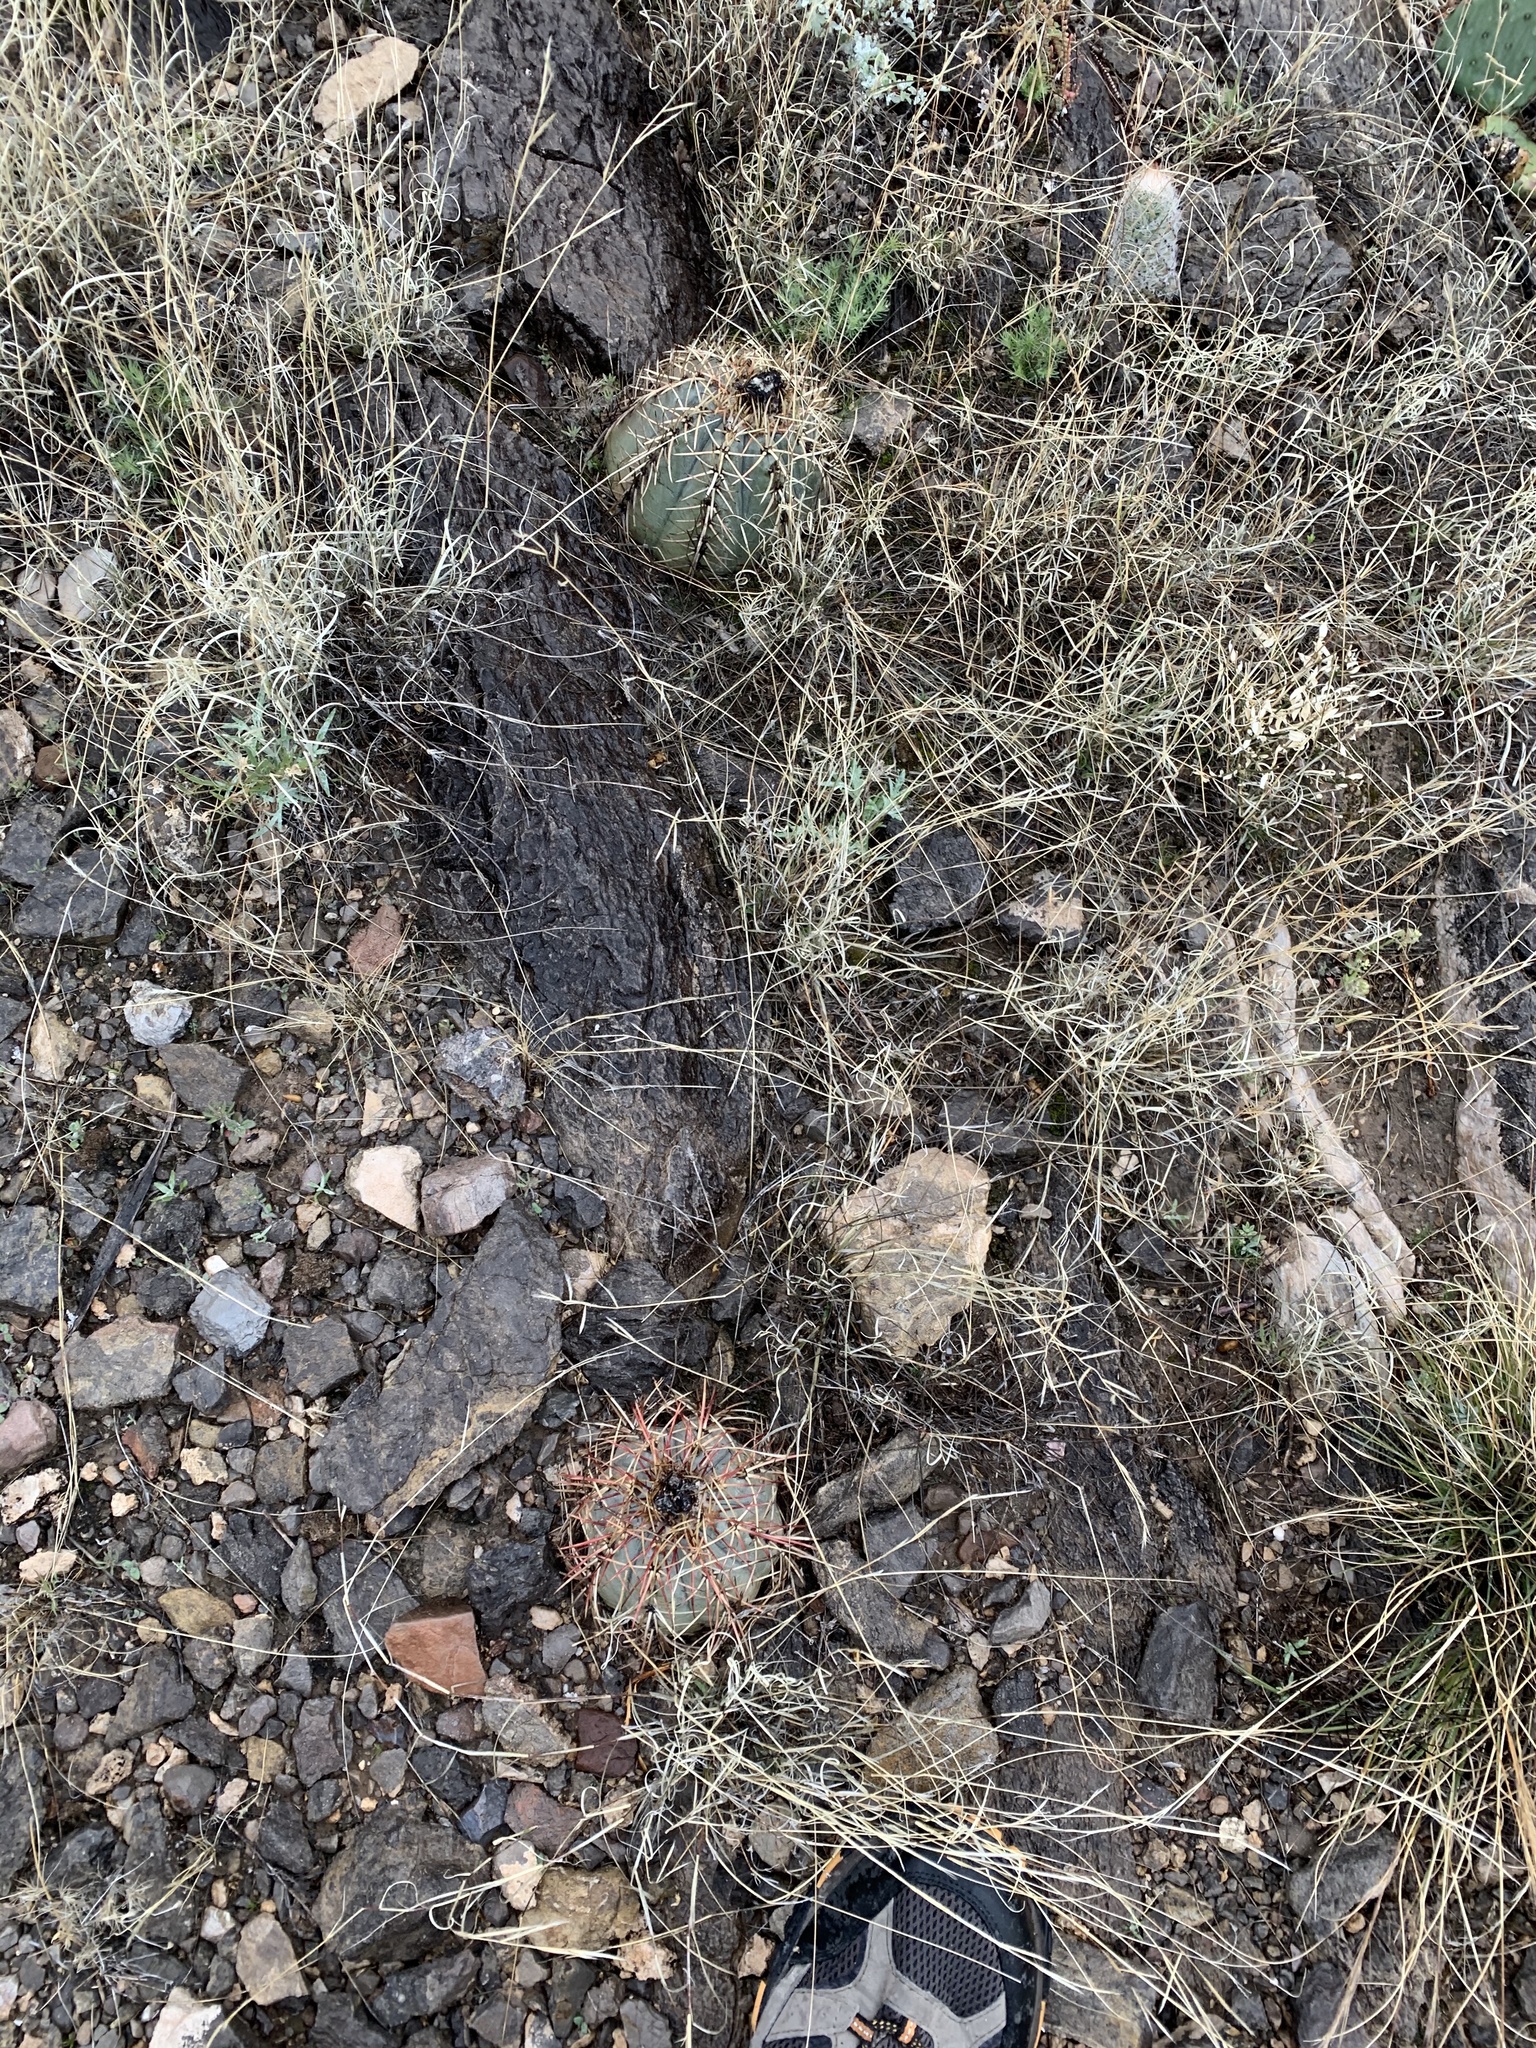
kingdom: Plantae
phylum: Tracheophyta
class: Magnoliopsida
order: Caryophyllales
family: Cactaceae
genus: Echinocactus
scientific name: Echinocactus horizonthalonius
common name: Devilshead
